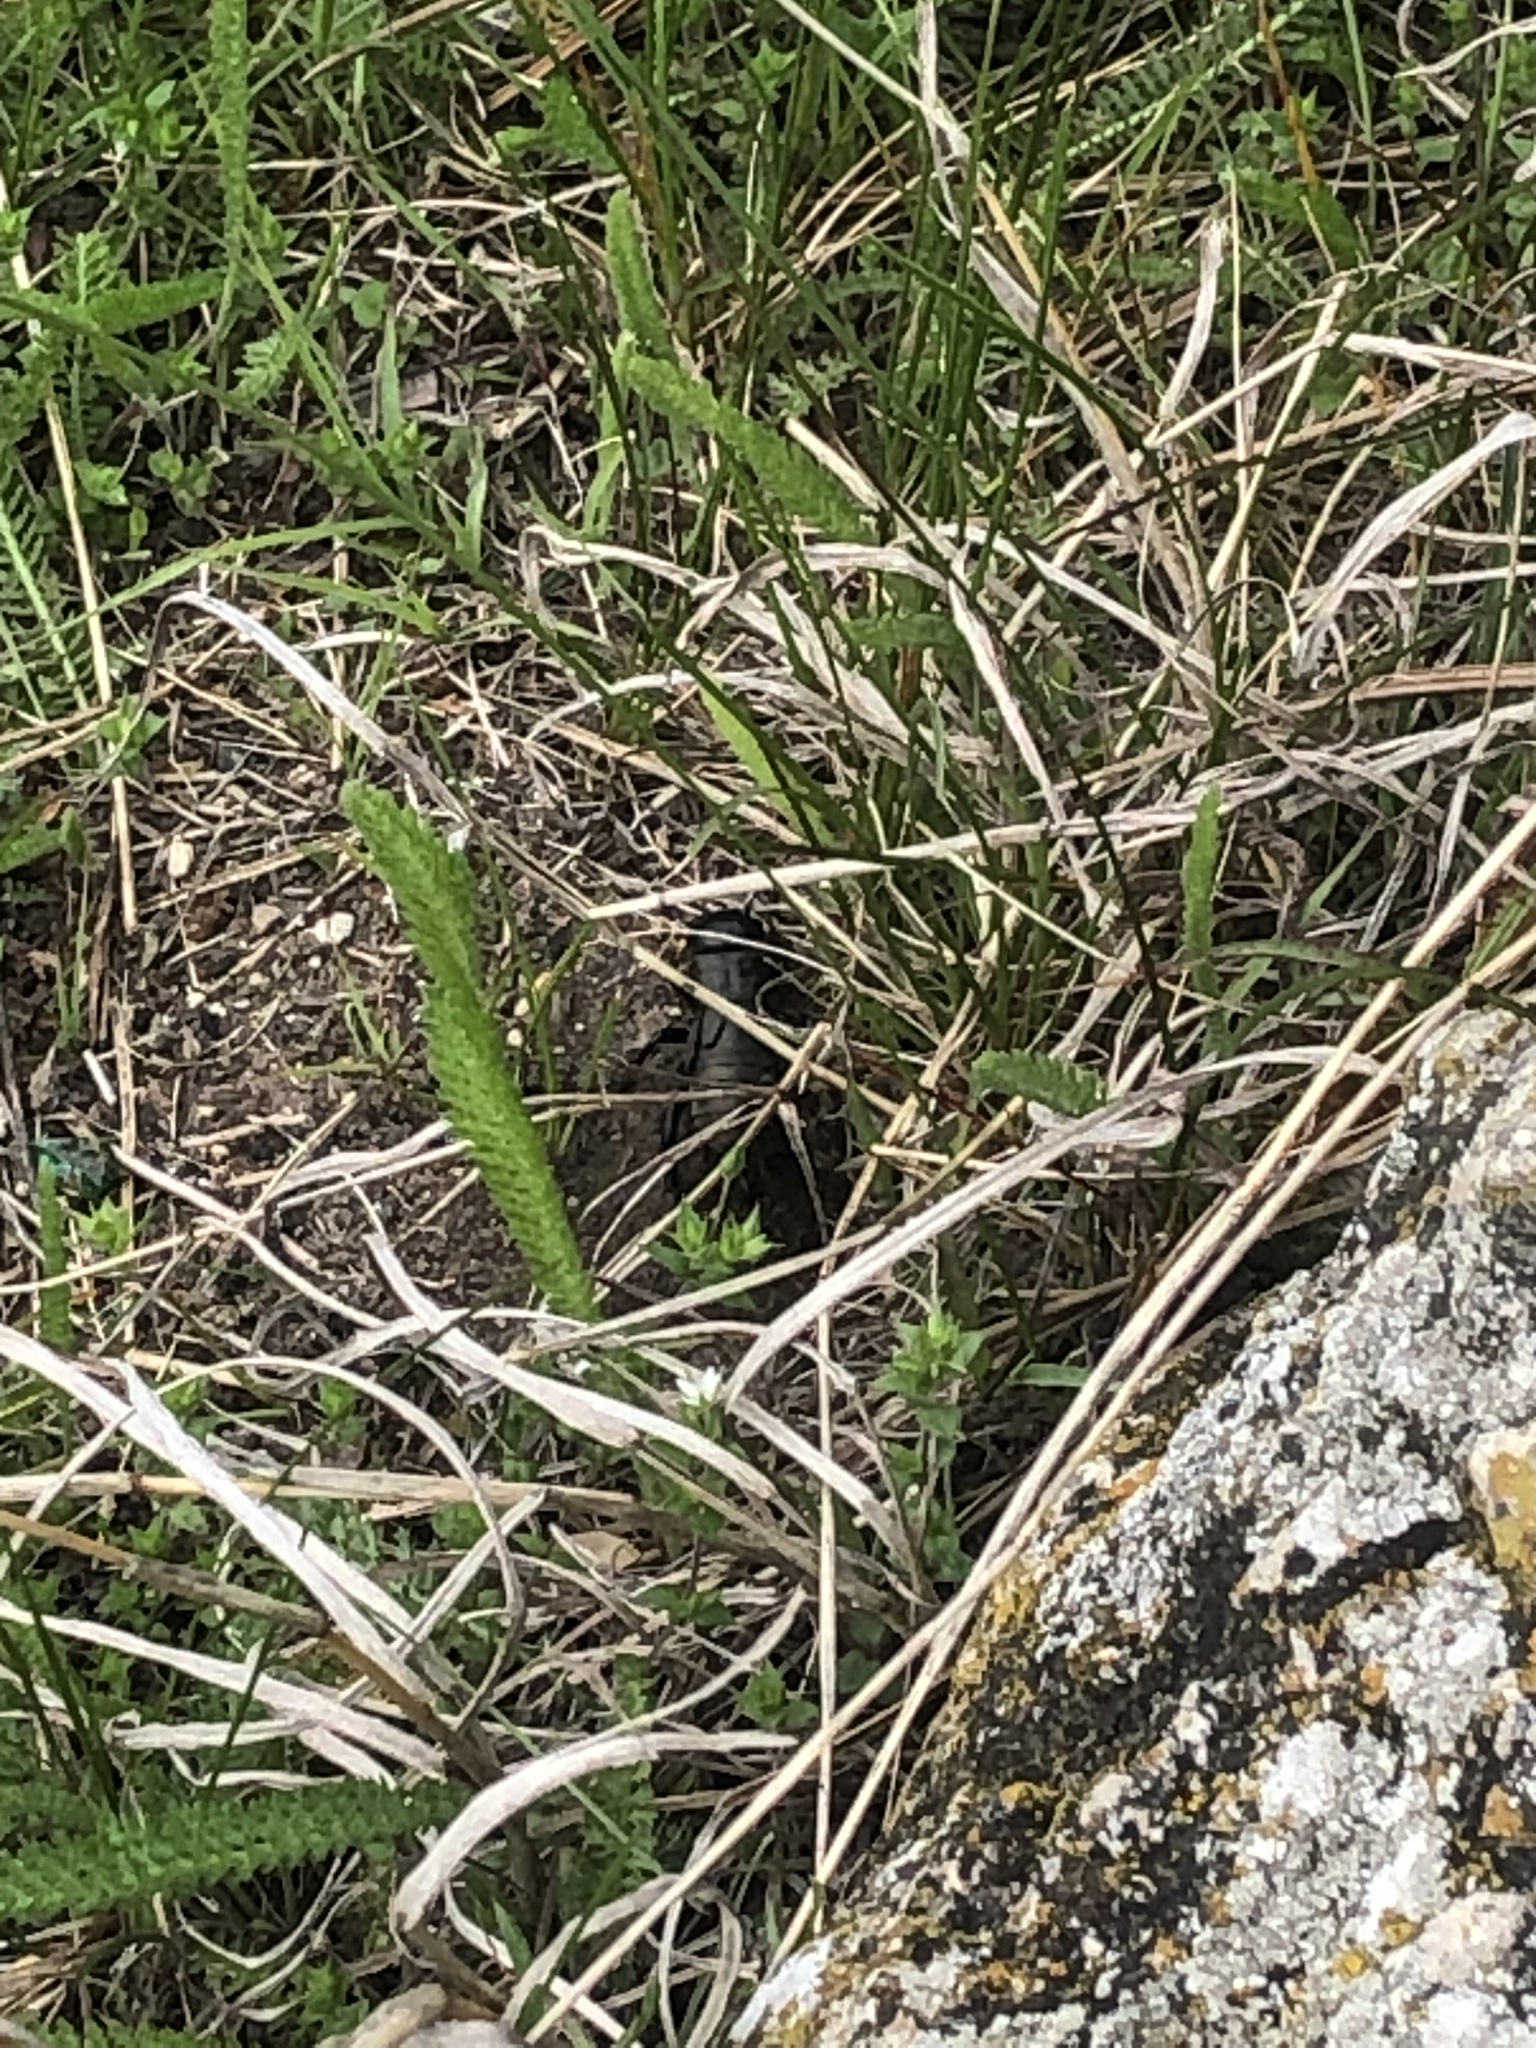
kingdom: Animalia
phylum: Arthropoda
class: Insecta
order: Orthoptera
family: Gryllidae
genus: Gryllus
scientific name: Gryllus campestris
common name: Field cricket
